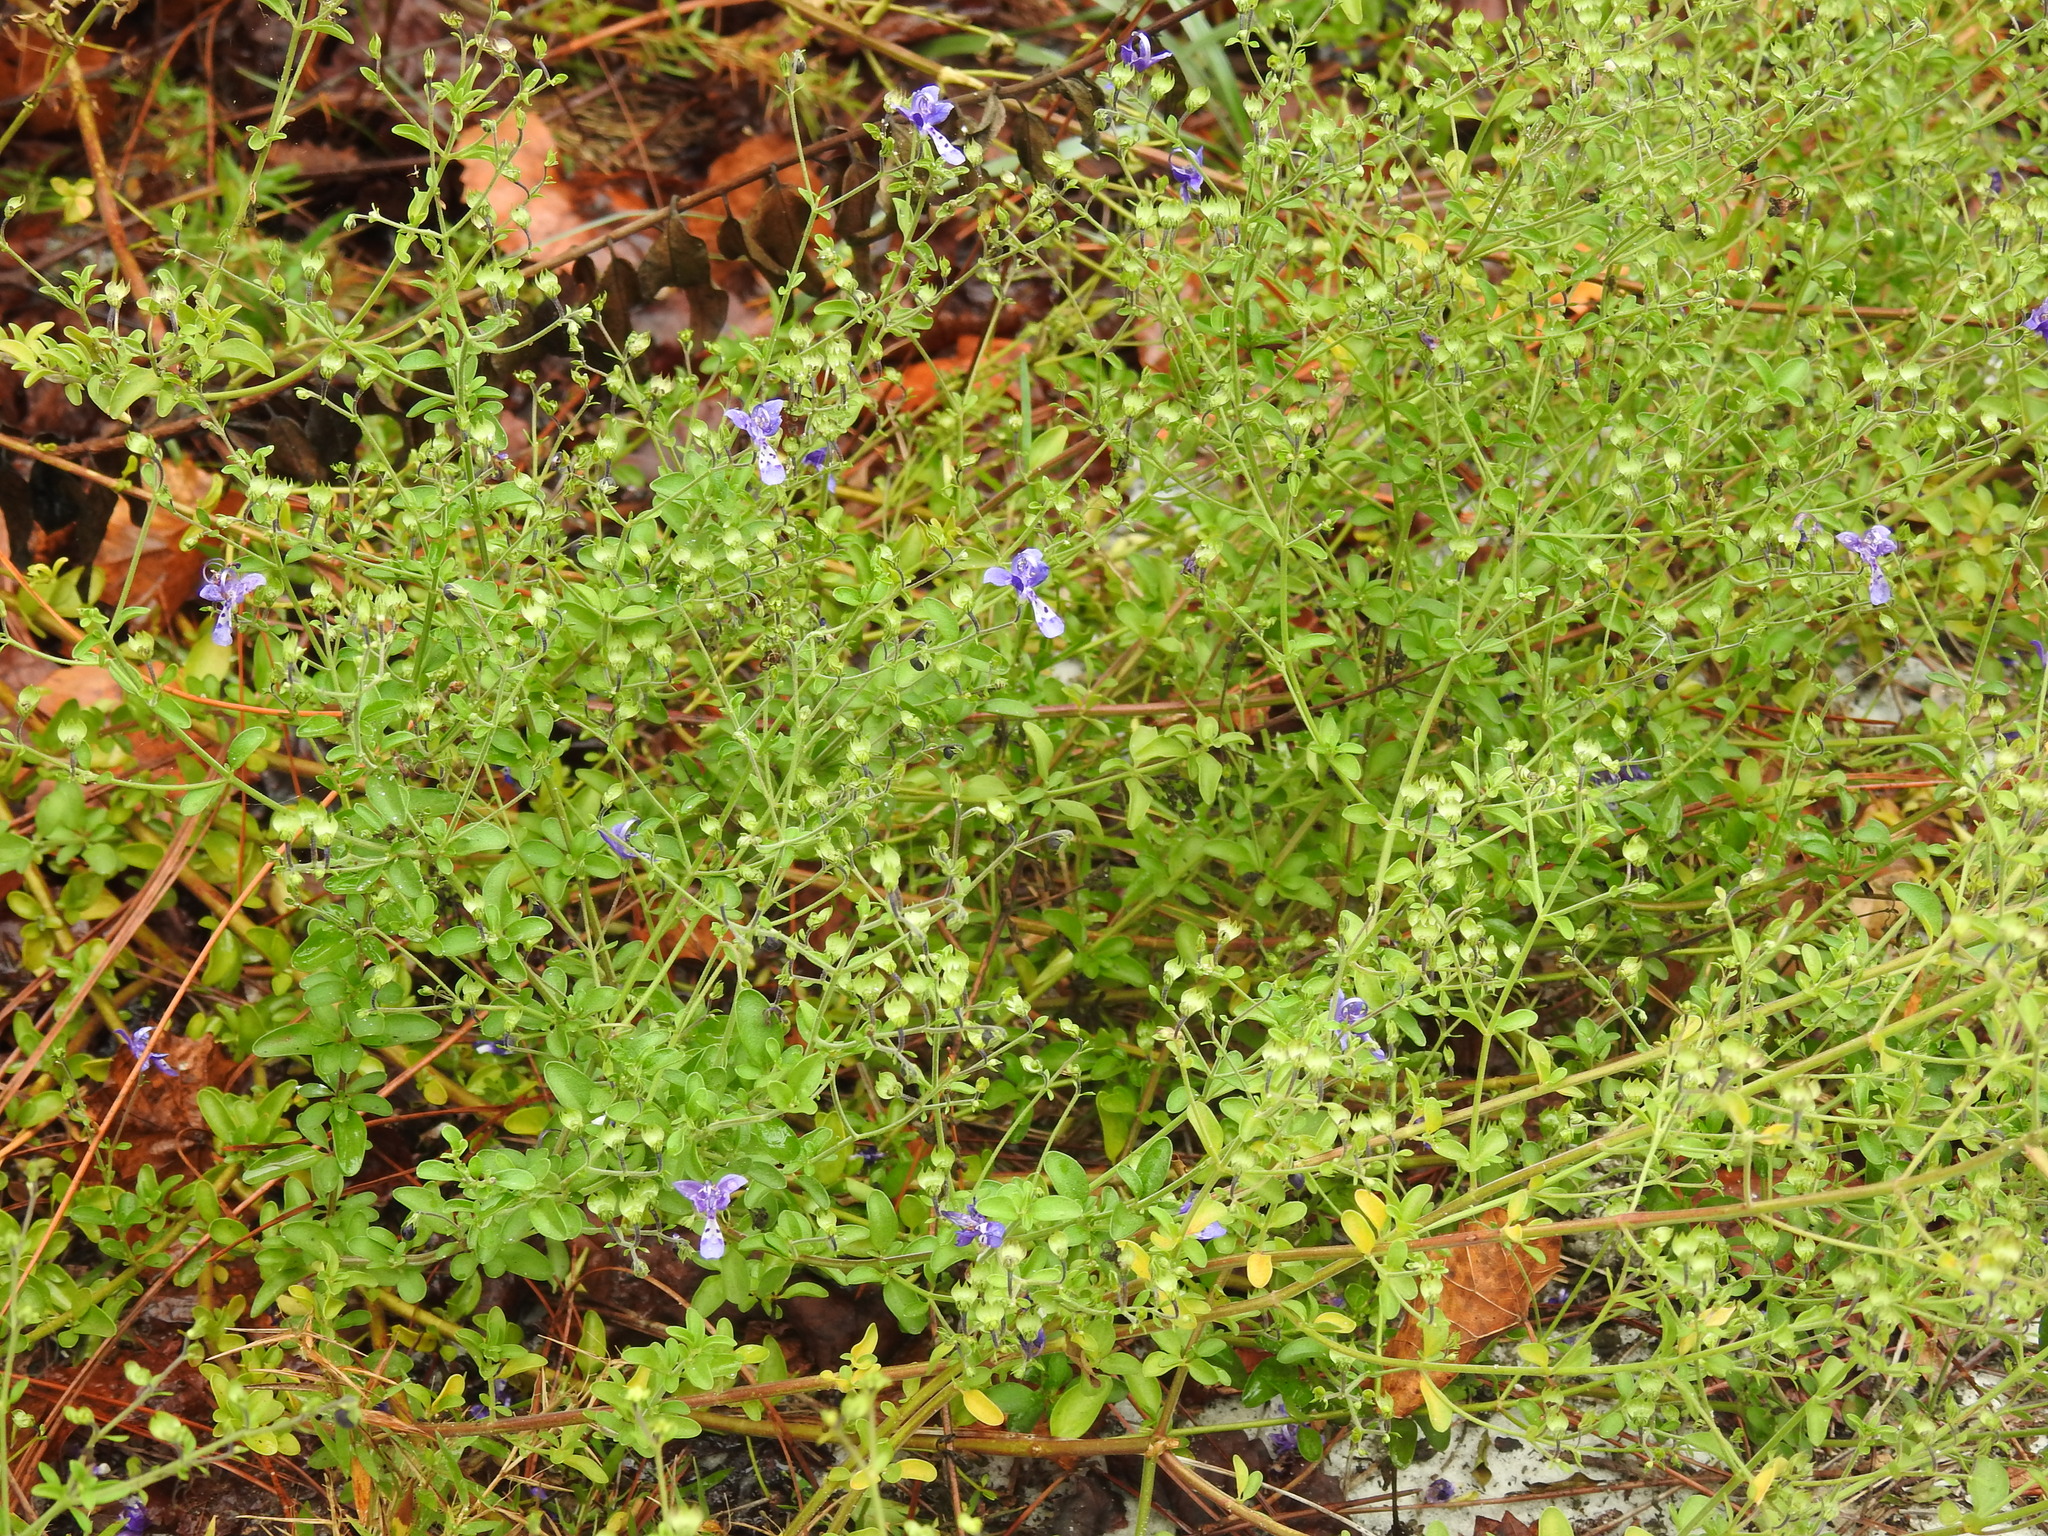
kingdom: Plantae
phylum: Tracheophyta
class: Magnoliopsida
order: Lamiales
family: Lamiaceae
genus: Trichostema
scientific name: Trichostema suffrutescens
